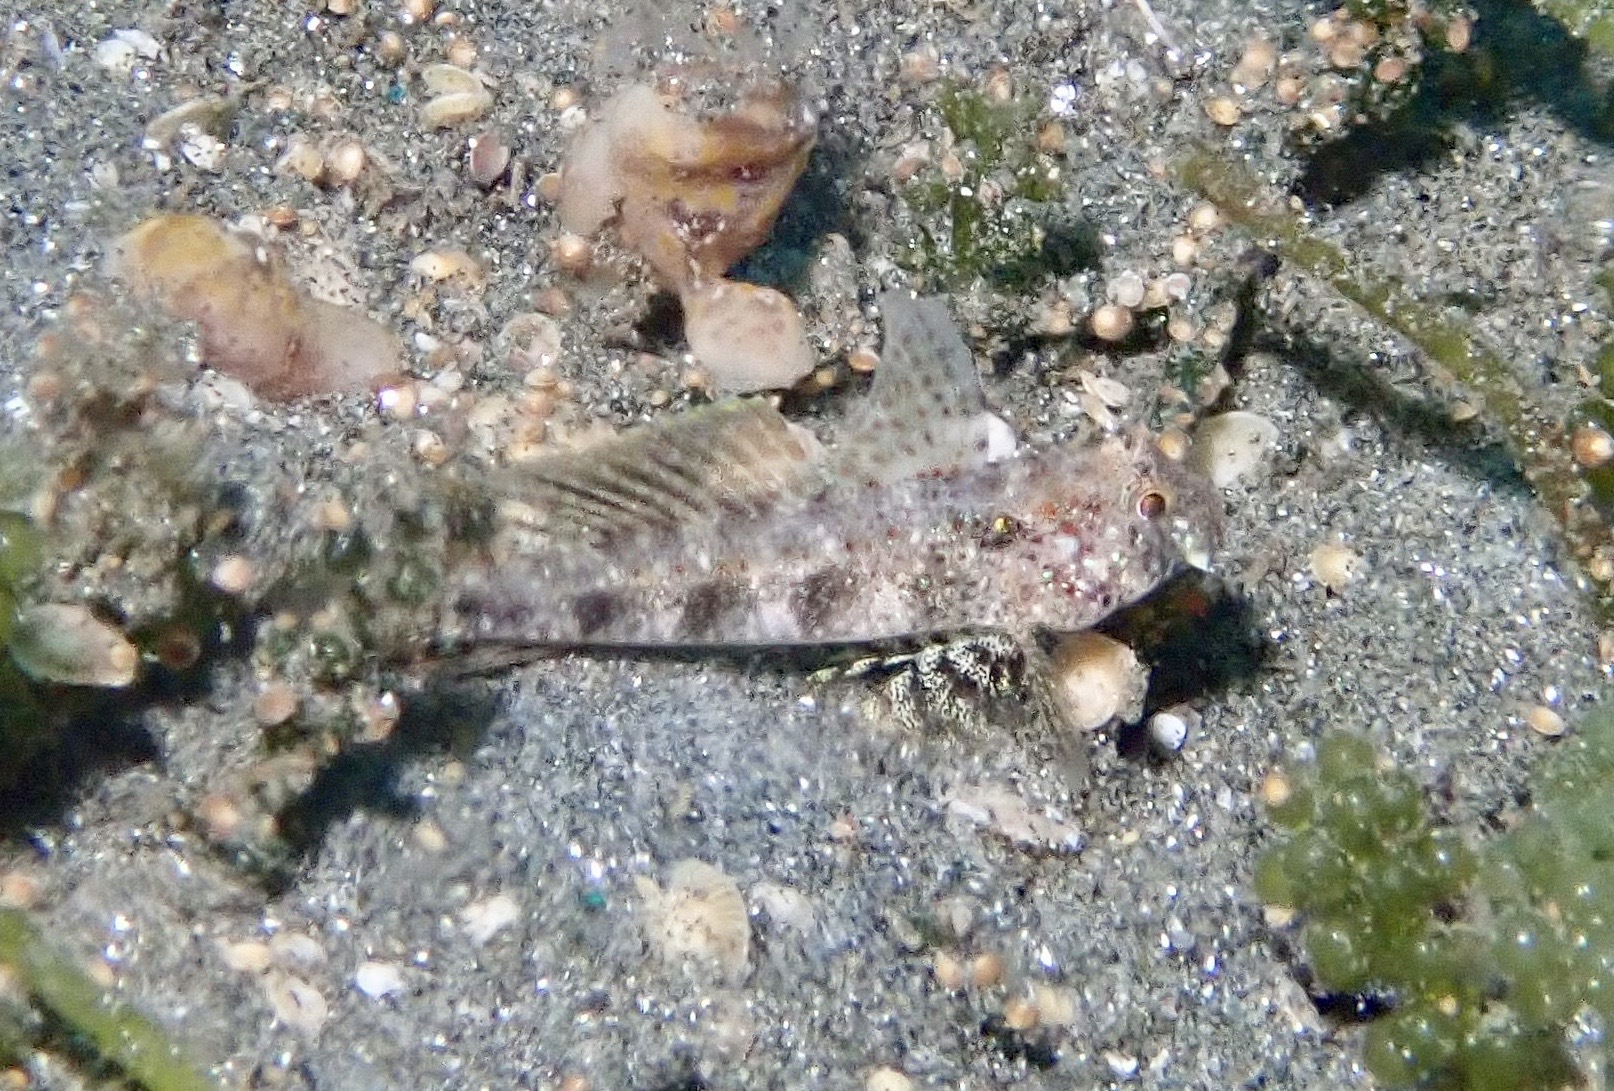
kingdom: Animalia
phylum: Chordata
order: Perciformes
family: Gobiidae
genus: Gnatholepis
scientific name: Gnatholepis yoshinoi
